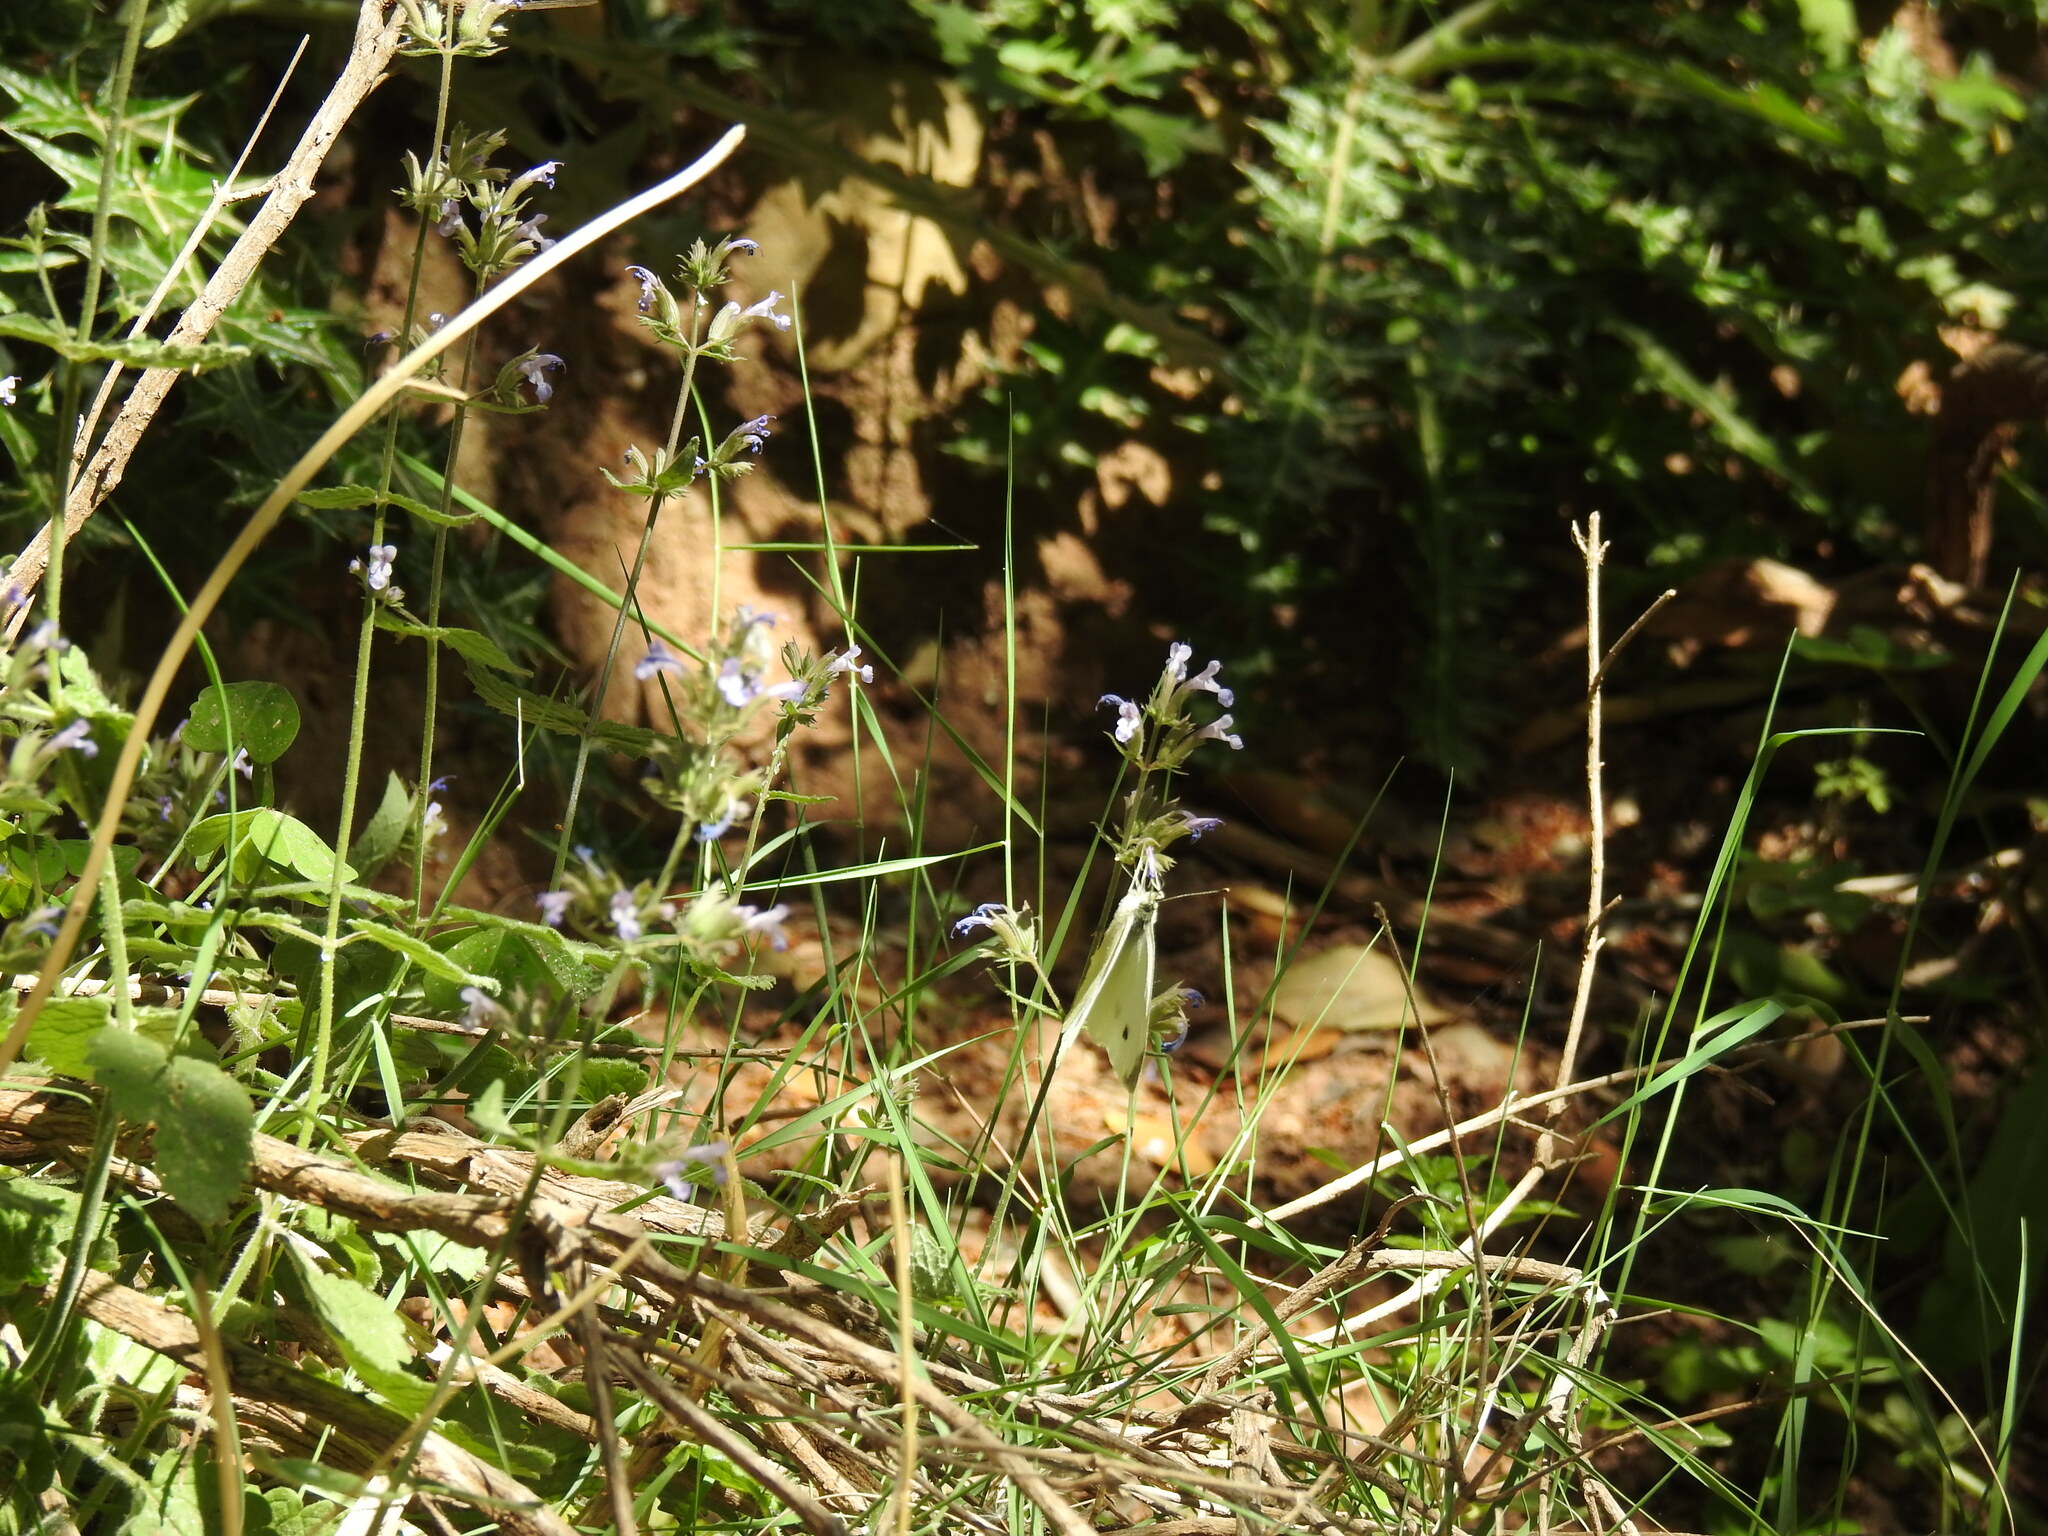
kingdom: Animalia
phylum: Arthropoda
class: Insecta
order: Lepidoptera
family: Pieridae
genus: Pieris
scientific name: Pieris rapae
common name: Small white
